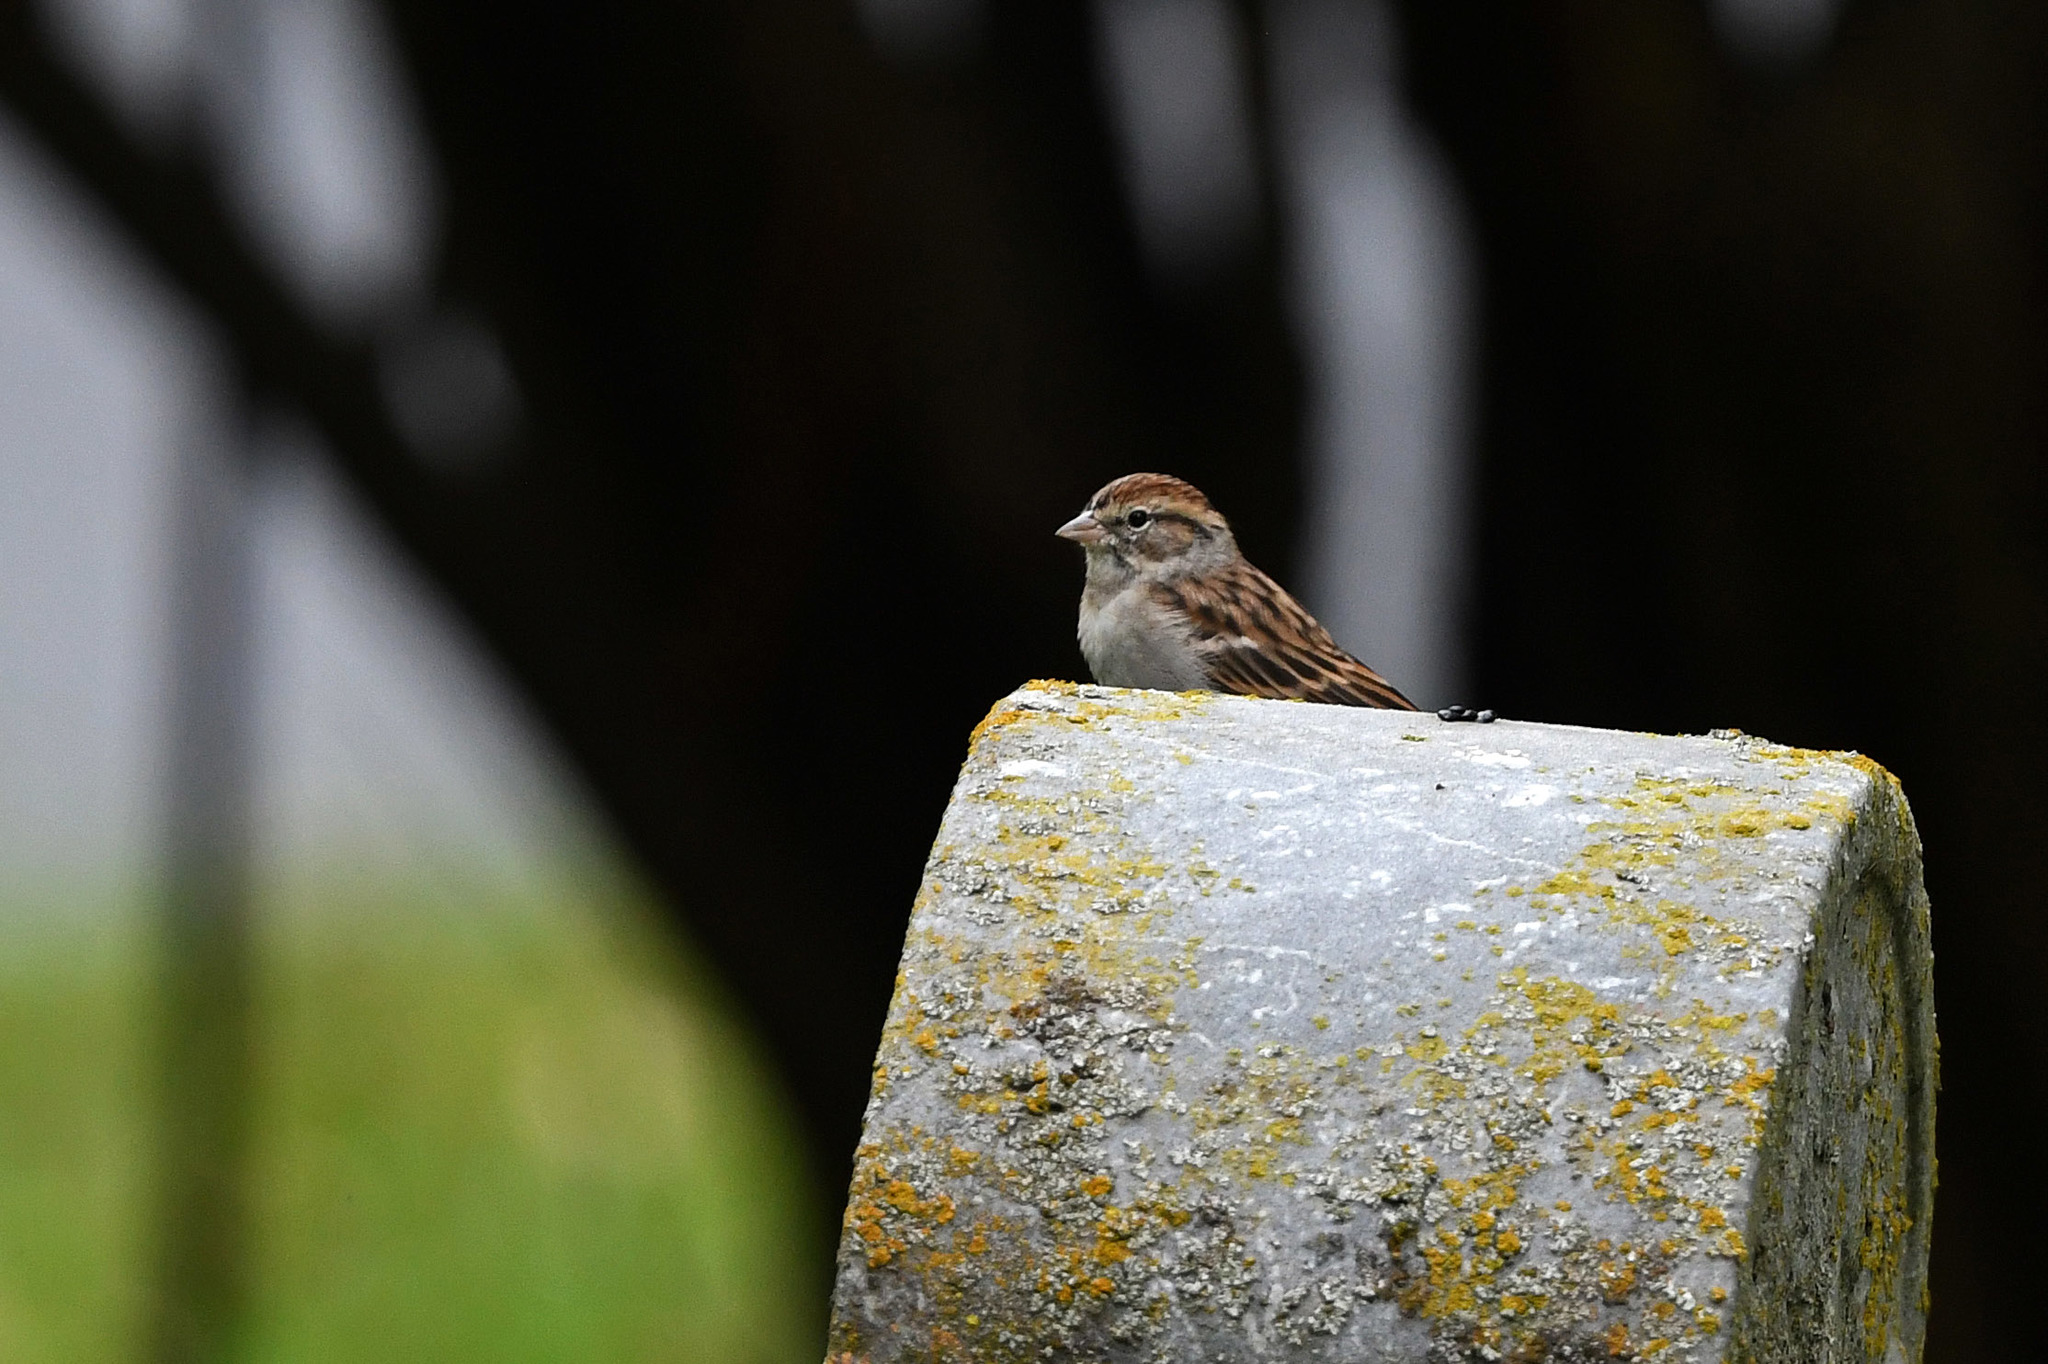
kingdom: Animalia
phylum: Chordata
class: Aves
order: Passeriformes
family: Passerellidae
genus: Spizella
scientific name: Spizella passerina
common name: Chipping sparrow
